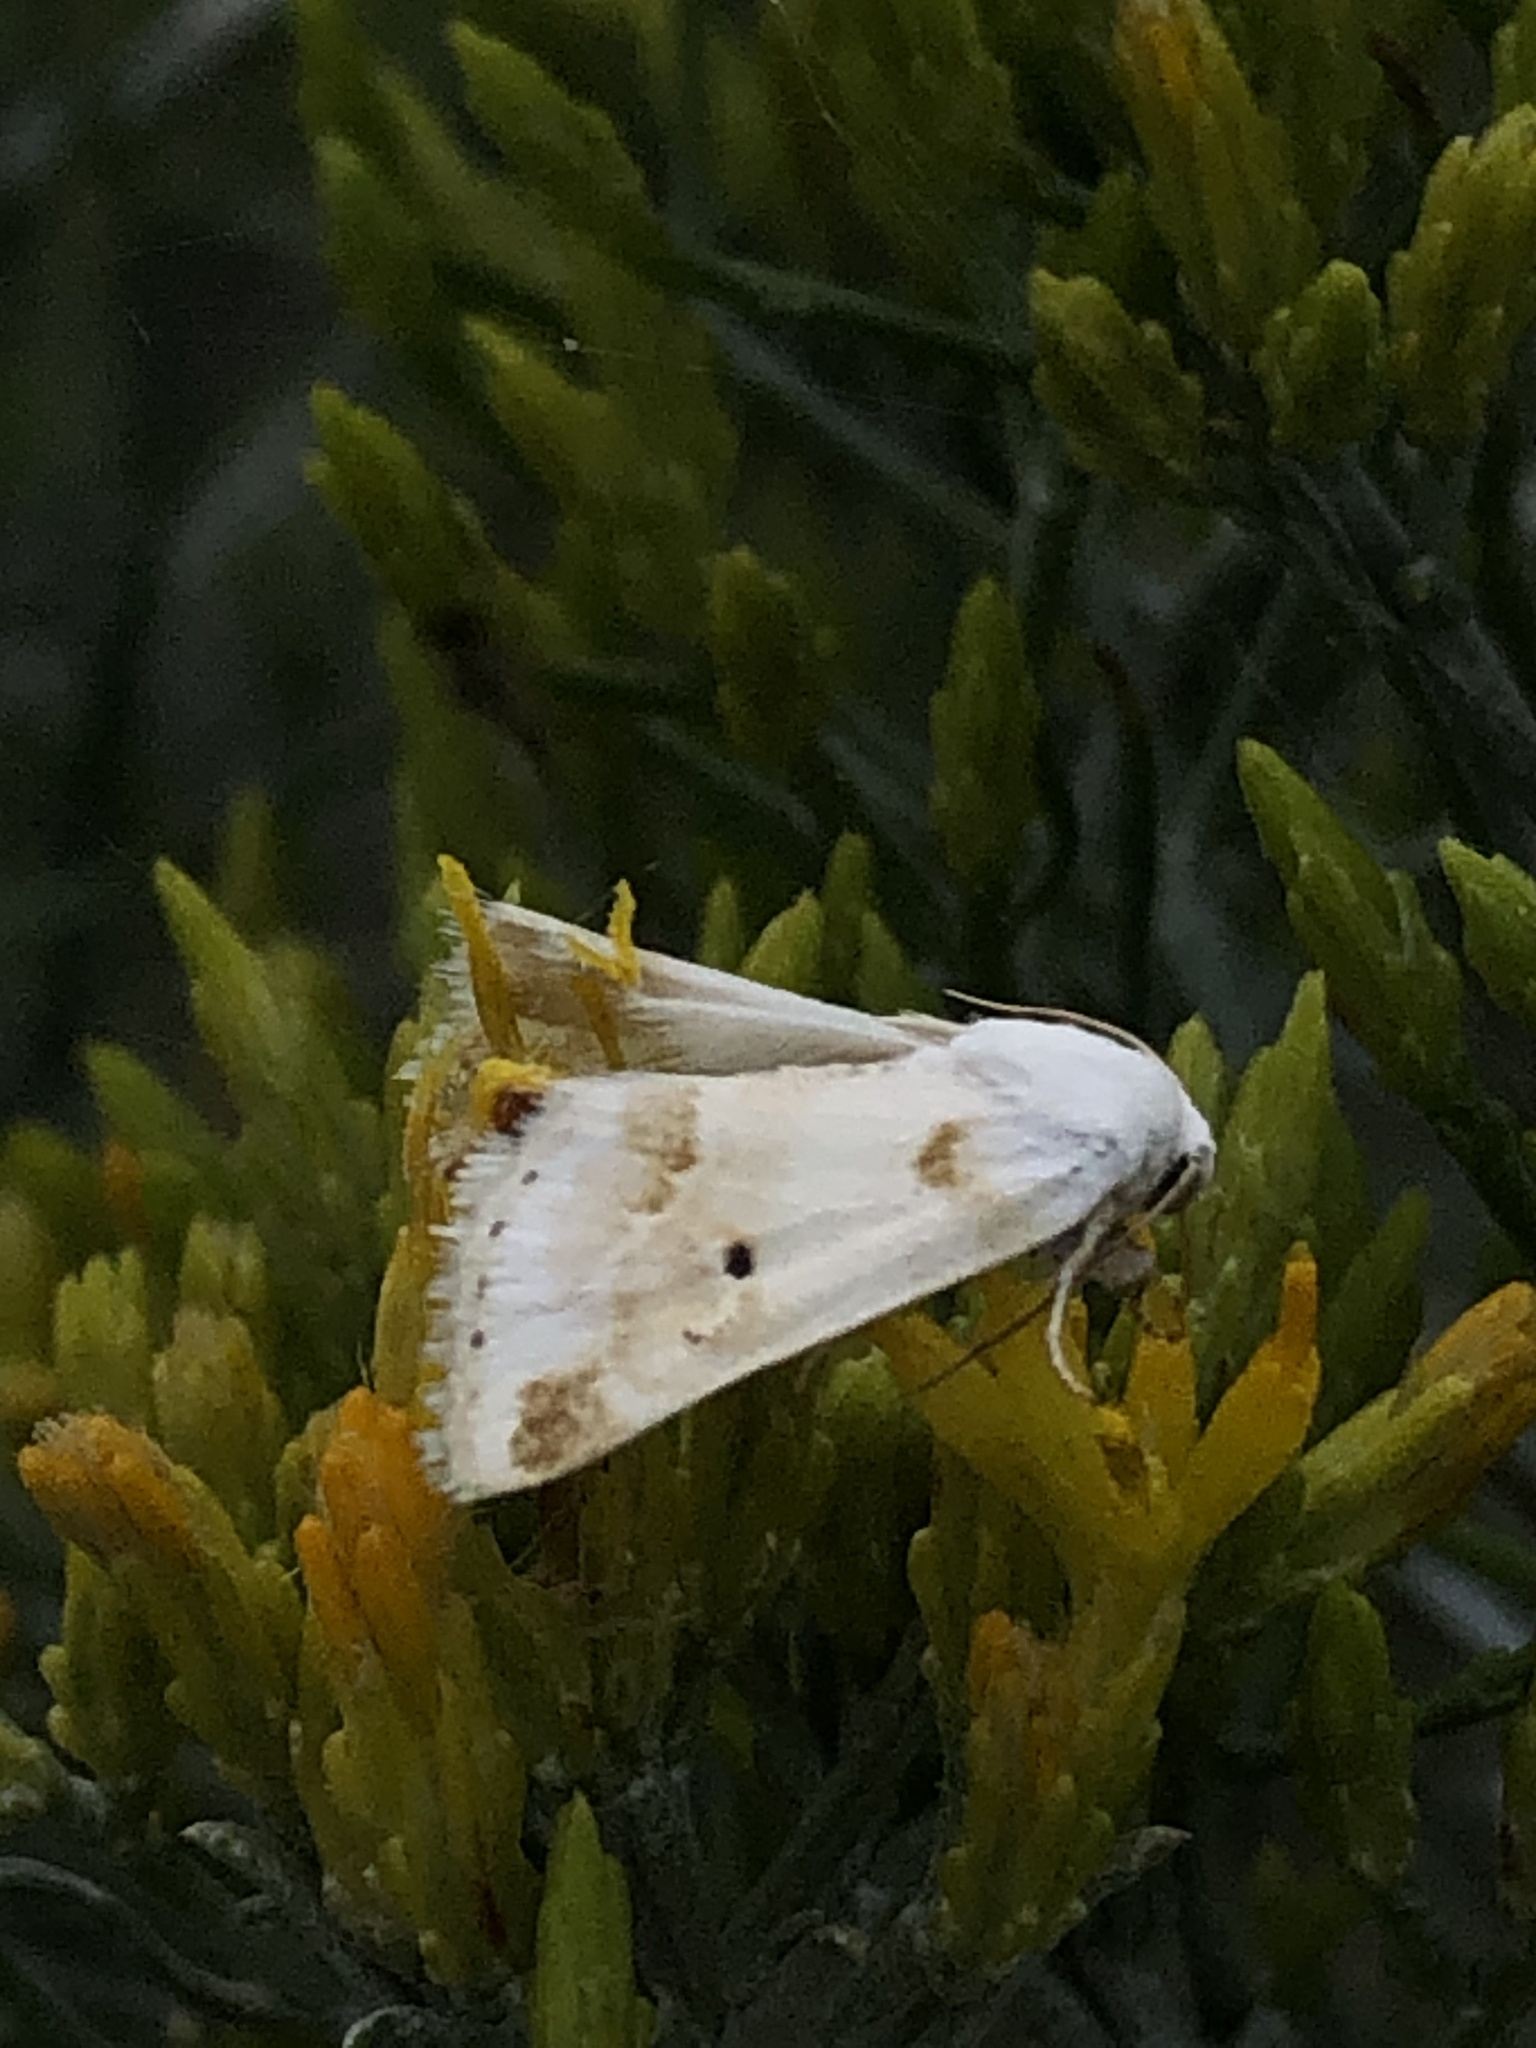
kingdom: Animalia
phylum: Arthropoda
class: Insecta
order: Lepidoptera
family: Noctuidae
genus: Schinia
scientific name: Schinia unimacula
